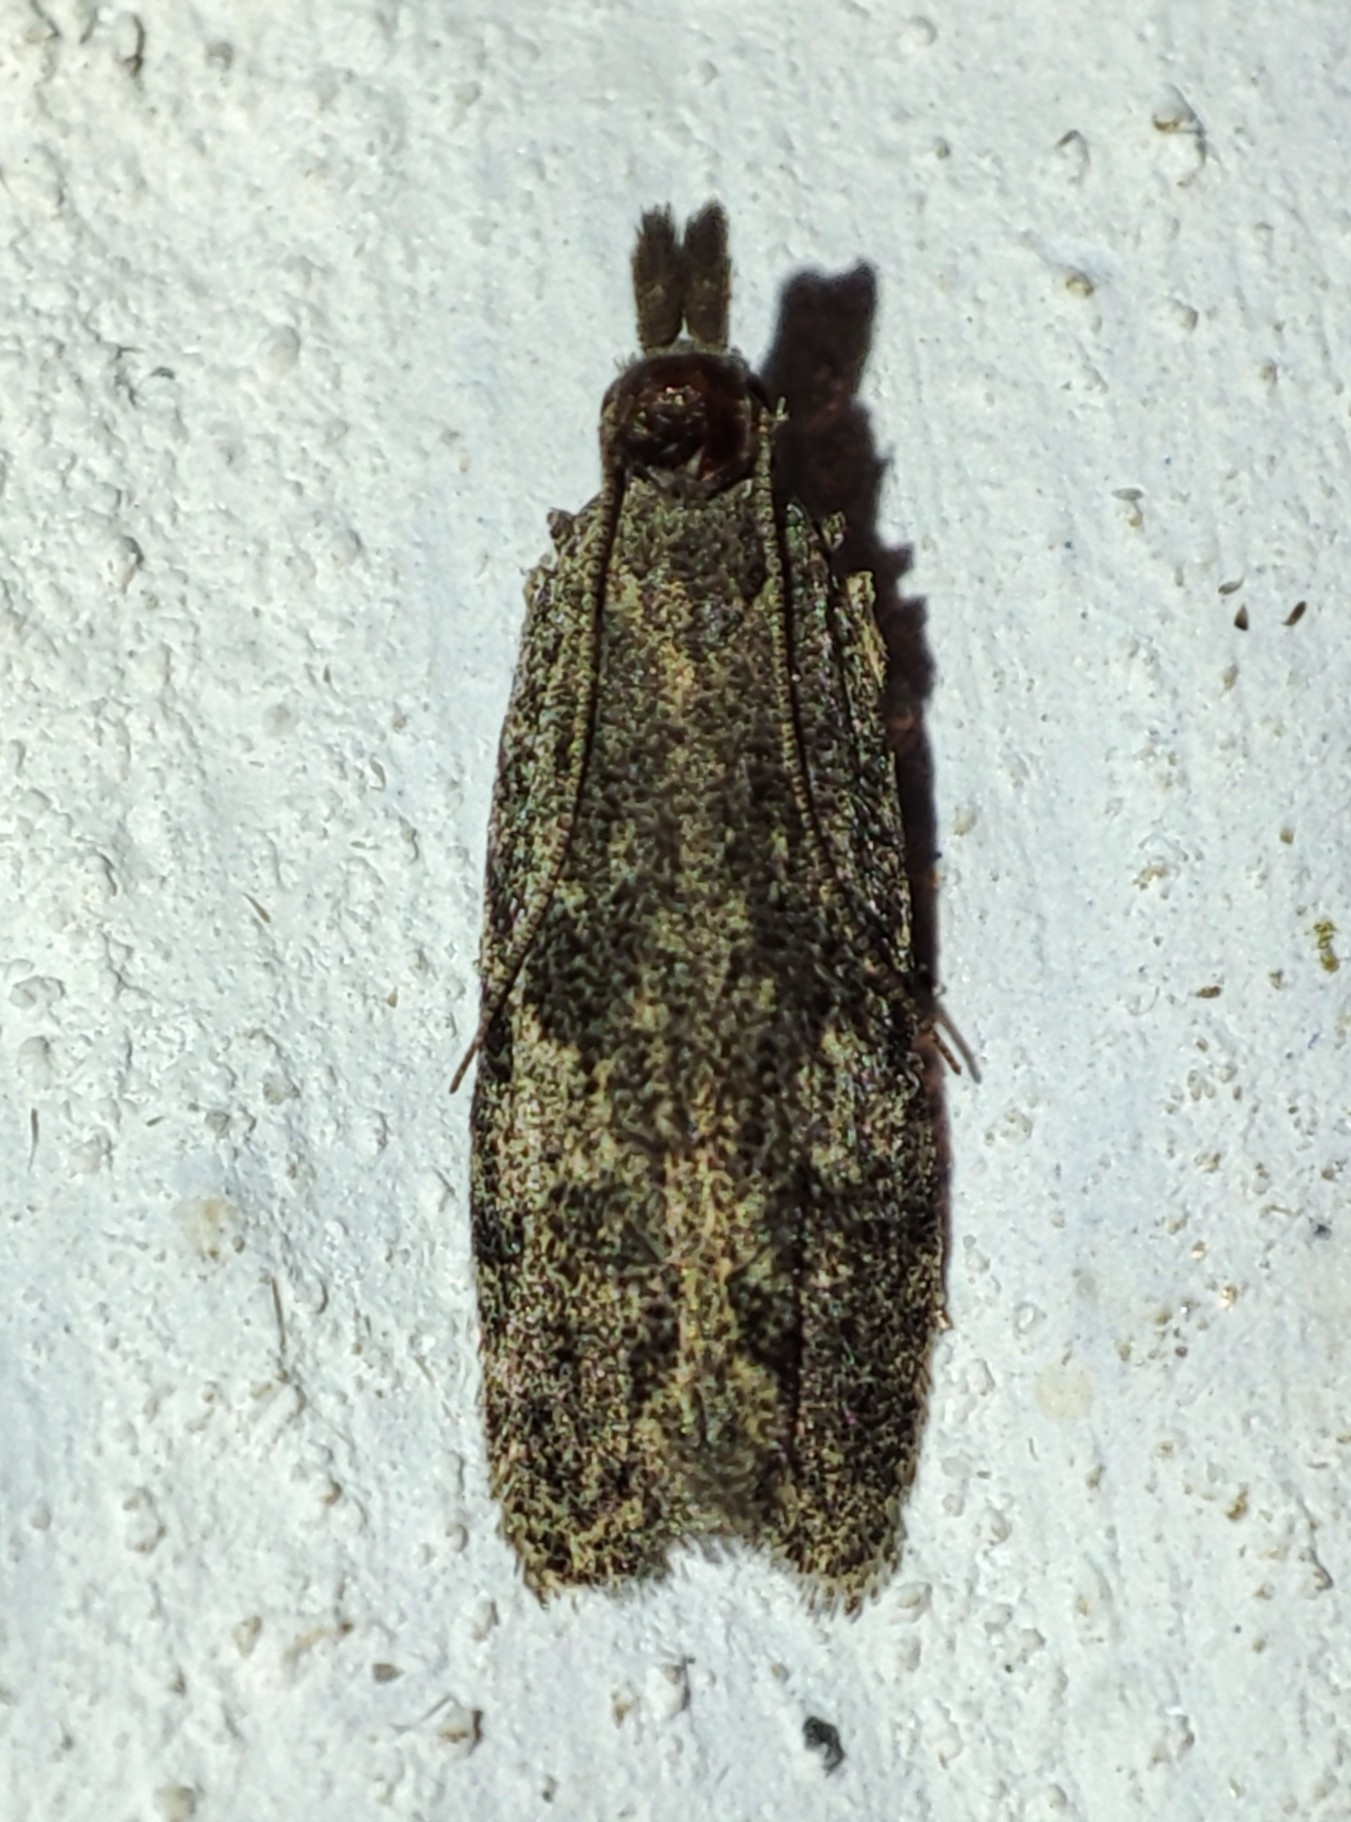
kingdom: Animalia
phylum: Arthropoda
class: Insecta
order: Lepidoptera
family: Gelechiidae
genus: Anarsia
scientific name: Anarsia eleagnella
